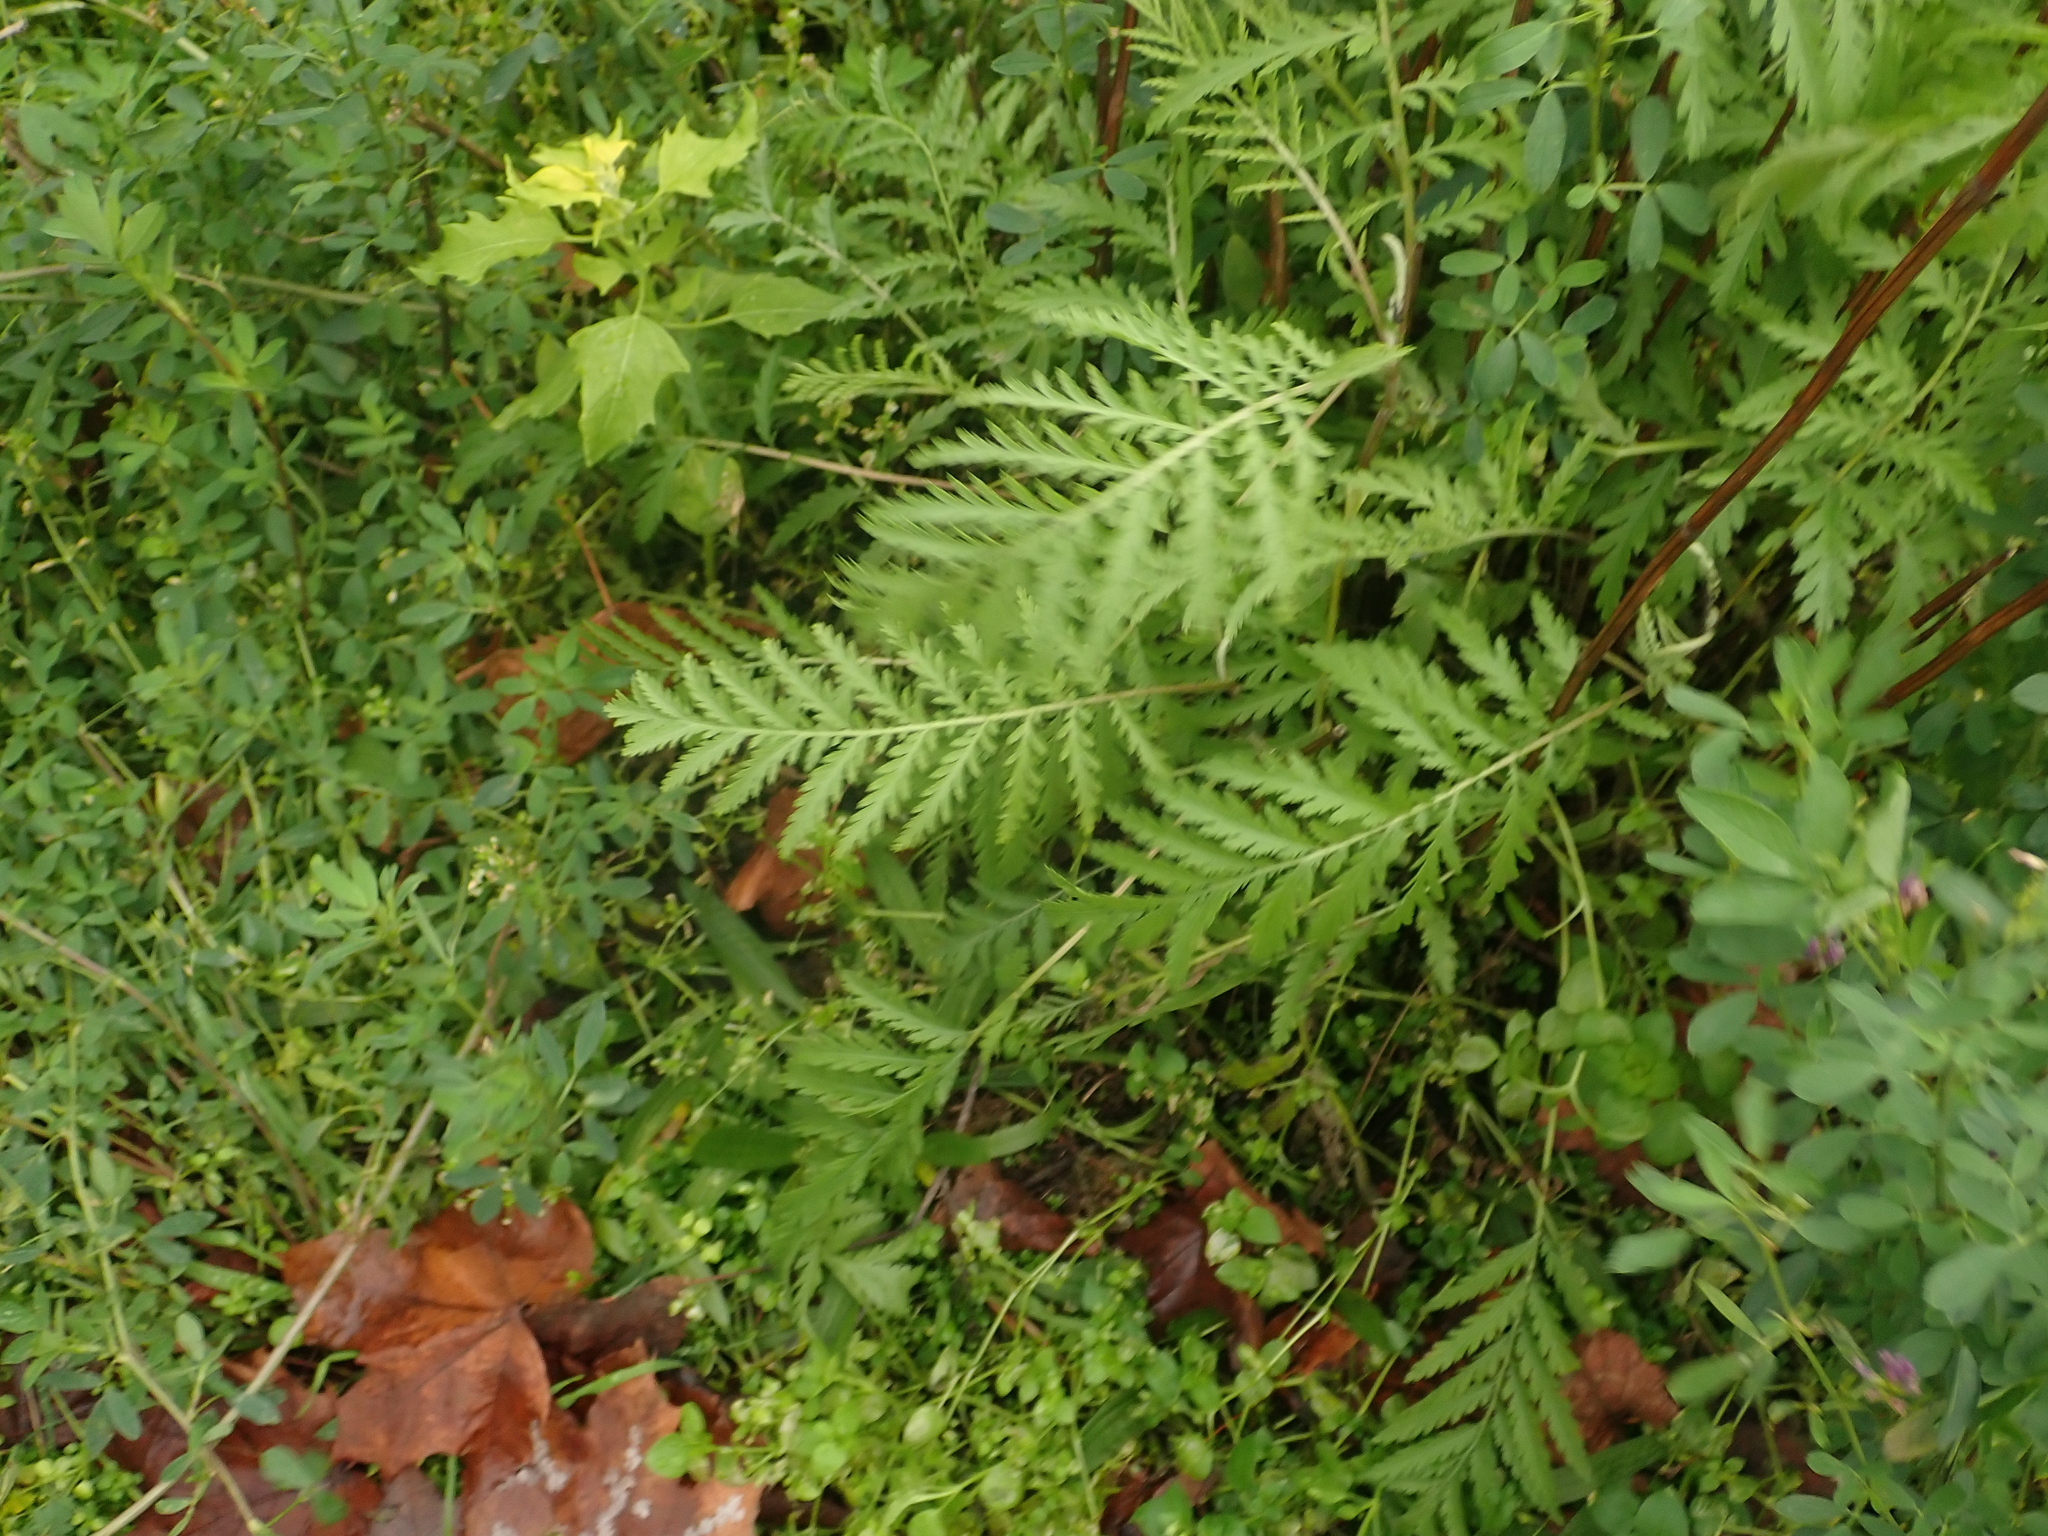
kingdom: Plantae
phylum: Tracheophyta
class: Magnoliopsida
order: Asterales
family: Asteraceae
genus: Tanacetum
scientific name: Tanacetum vulgare
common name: Common tansy
